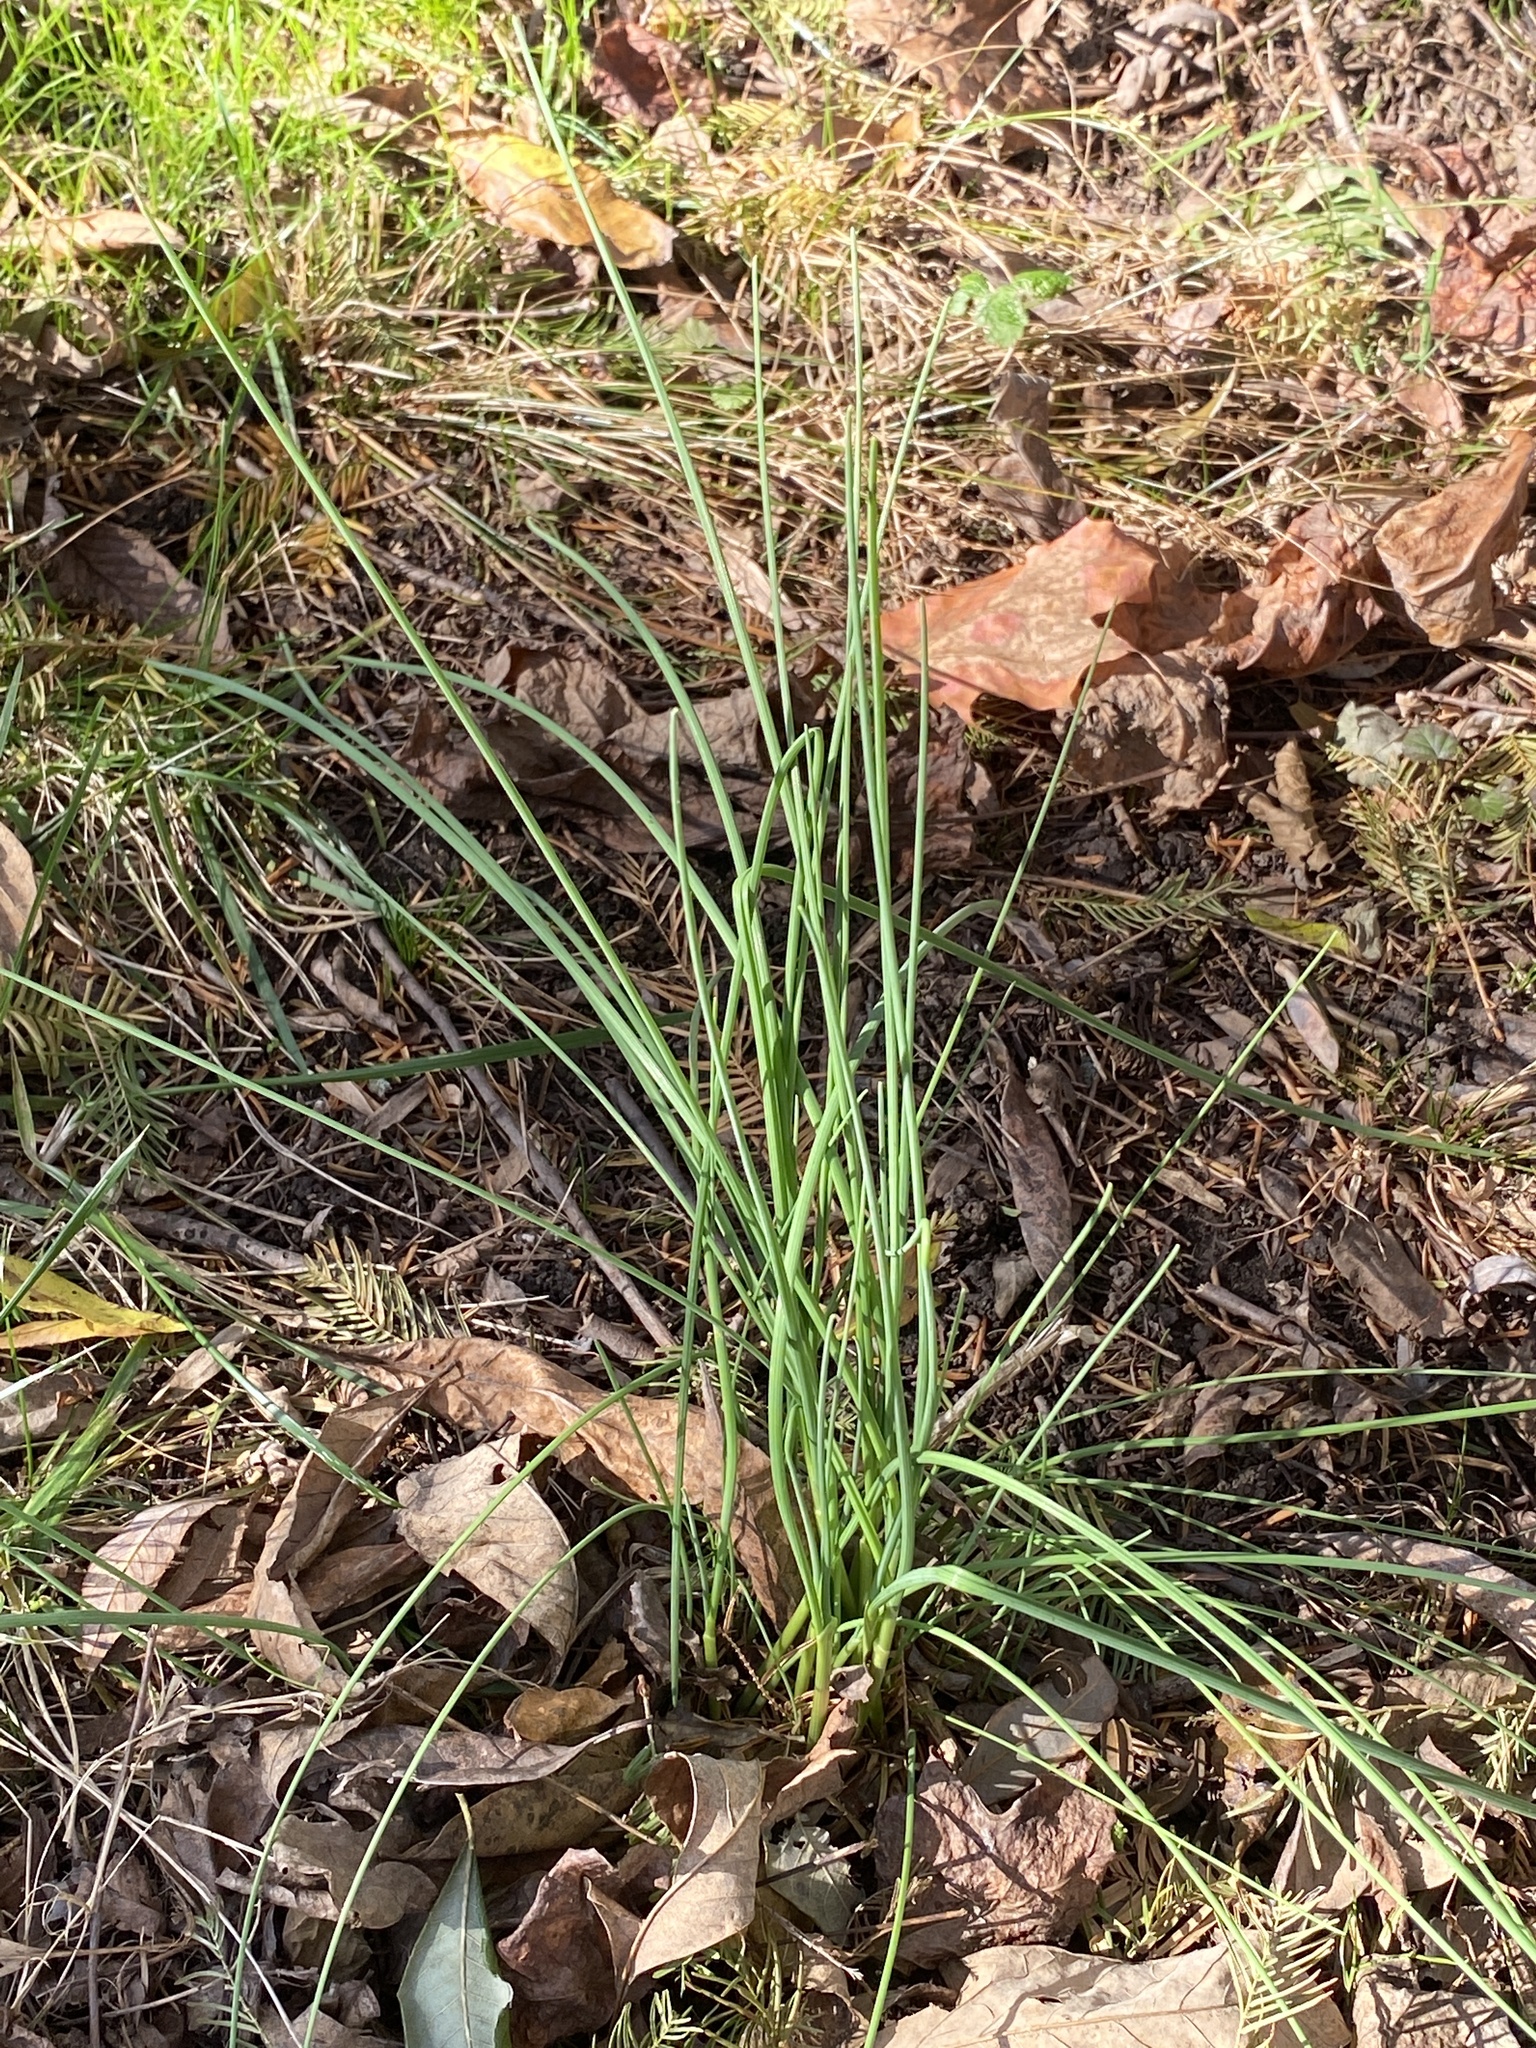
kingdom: Plantae
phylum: Tracheophyta
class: Liliopsida
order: Asparagales
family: Amaryllidaceae
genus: Allium
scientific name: Allium vineale
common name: Crow garlic
